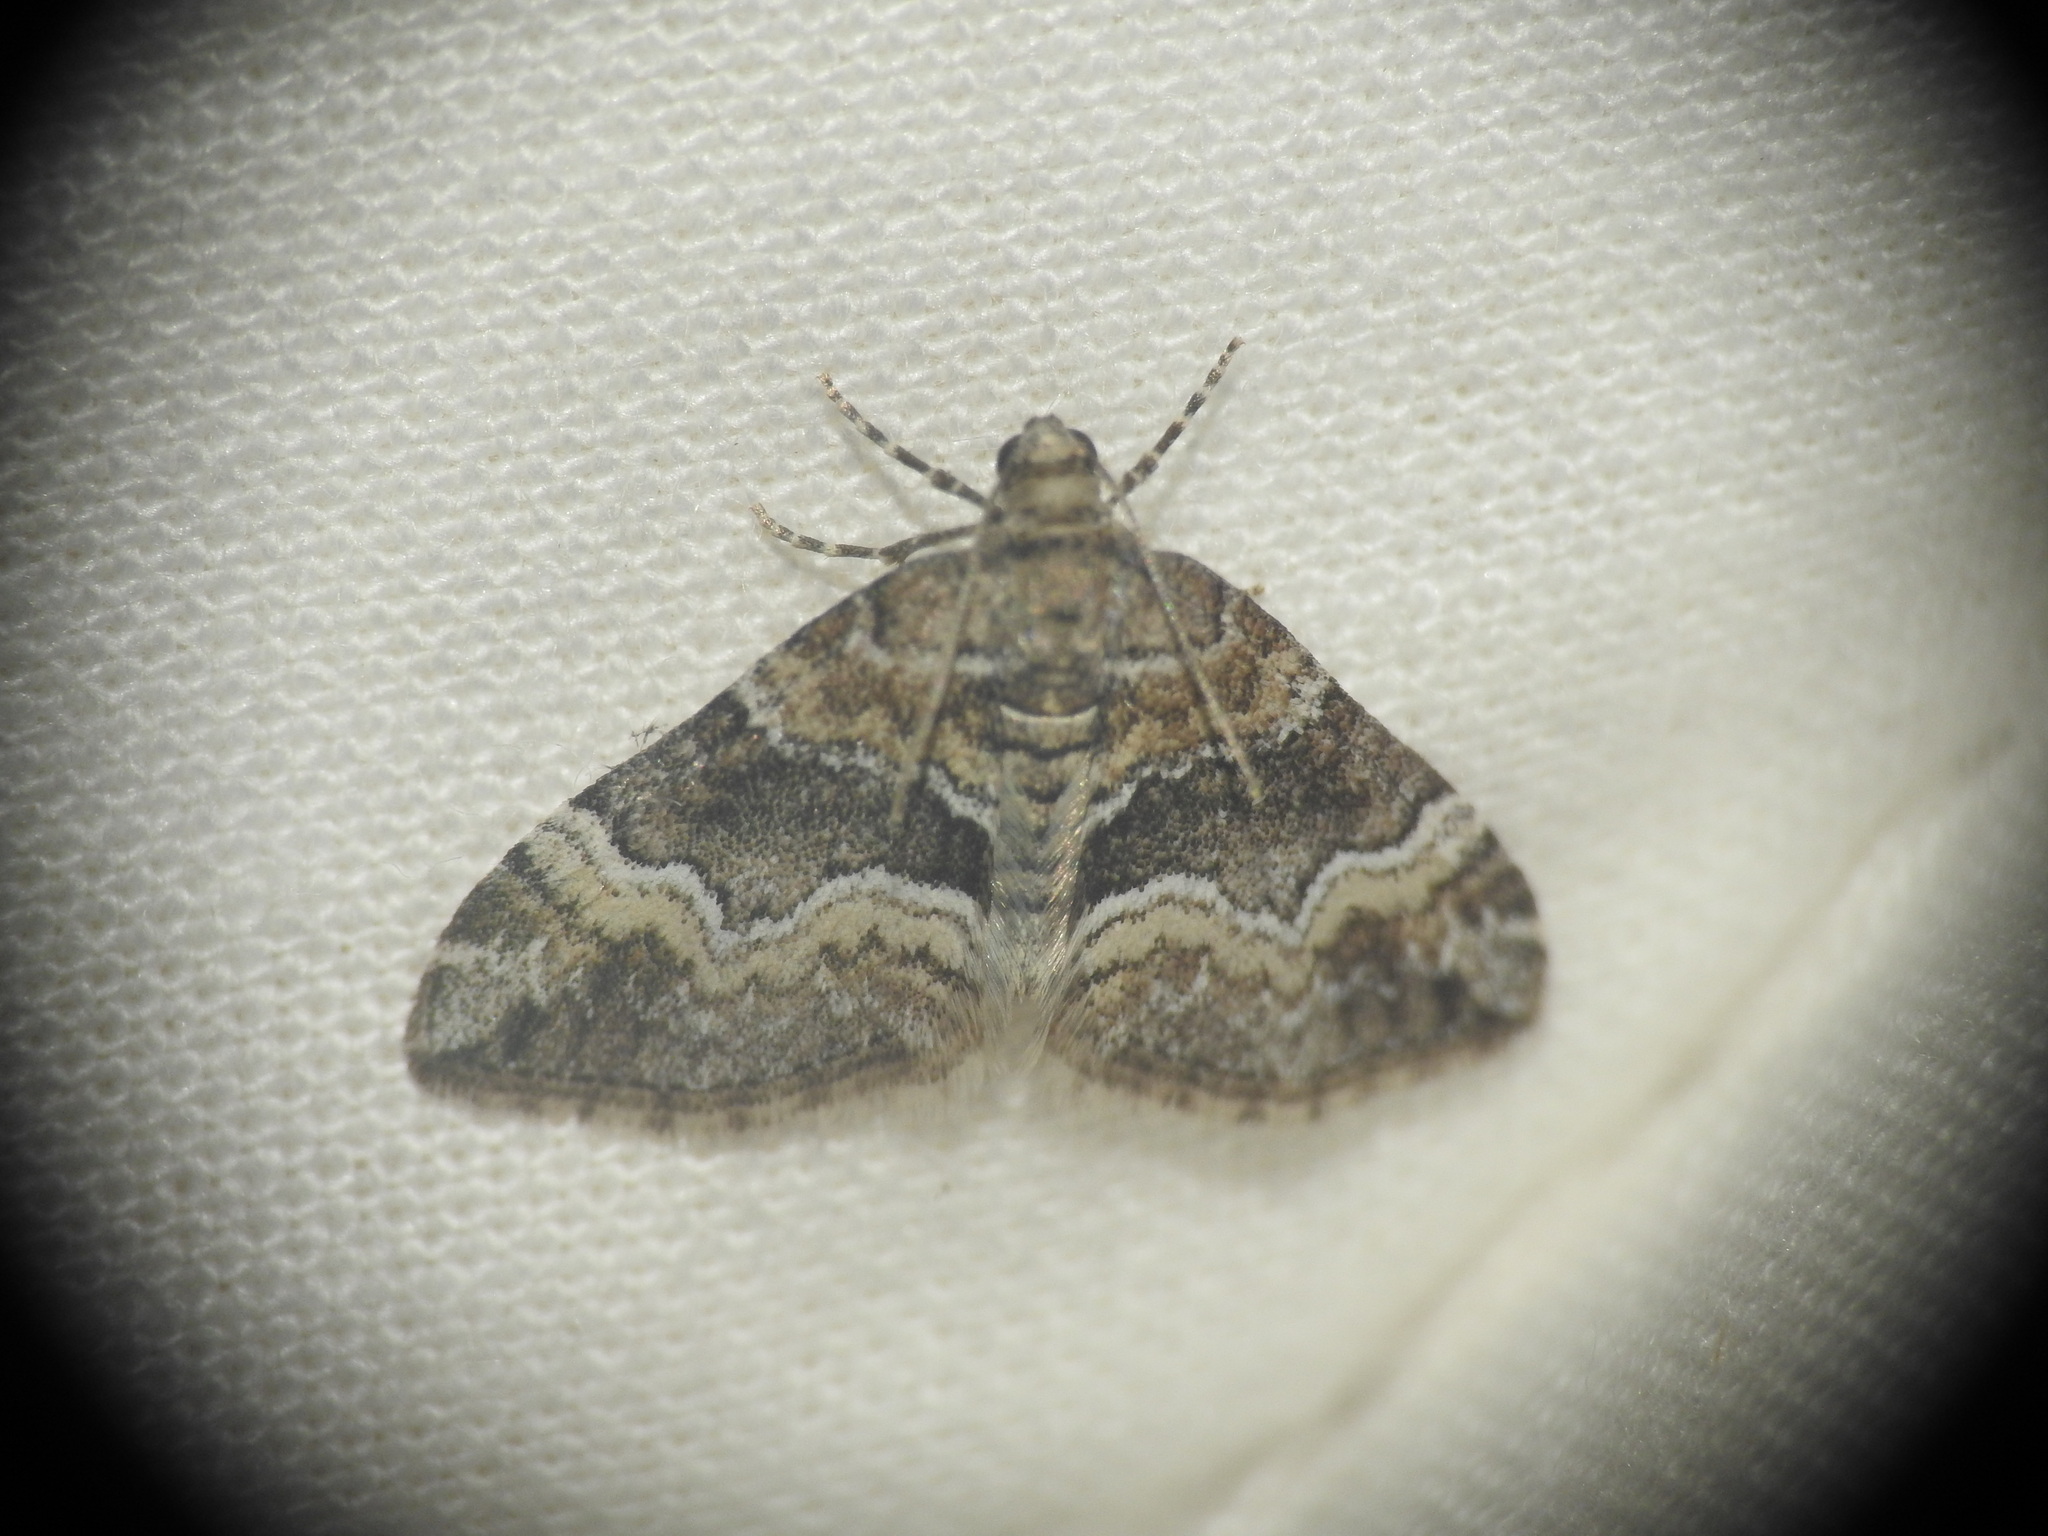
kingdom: Animalia
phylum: Arthropoda
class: Insecta
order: Lepidoptera
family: Geometridae
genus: Perizoma
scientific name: Perizoma bifaciata
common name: Barred rivulet
